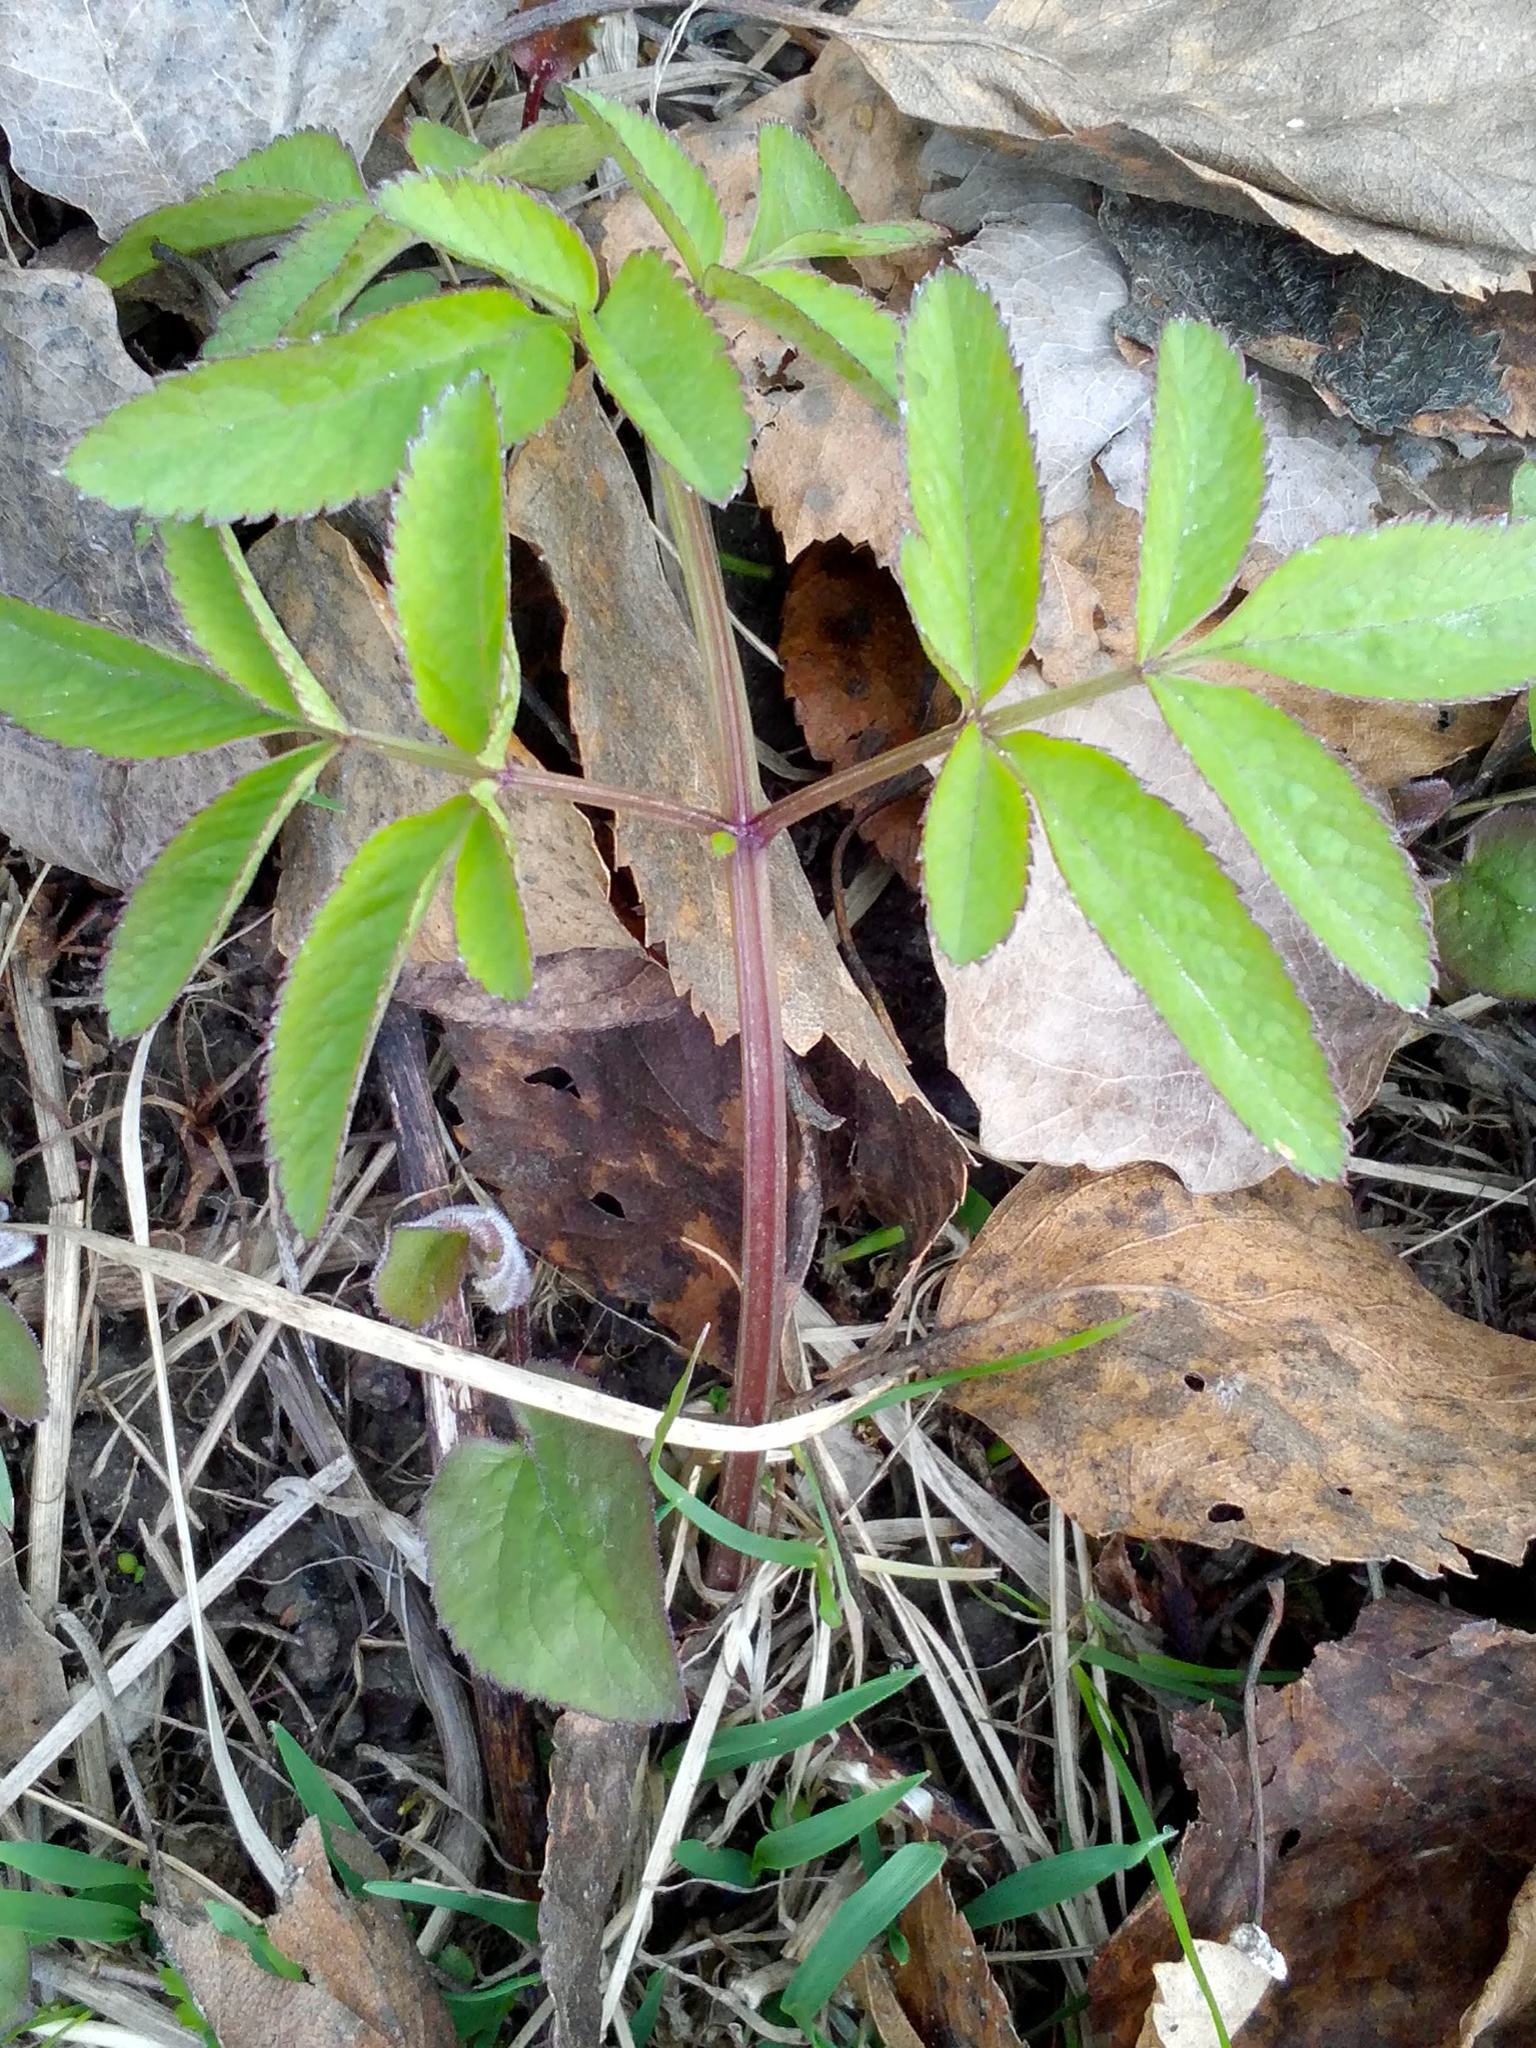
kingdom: Plantae
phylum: Tracheophyta
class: Magnoliopsida
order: Apiales
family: Apiaceae
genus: Angelica
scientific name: Angelica sylvestris
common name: Wild angelica
